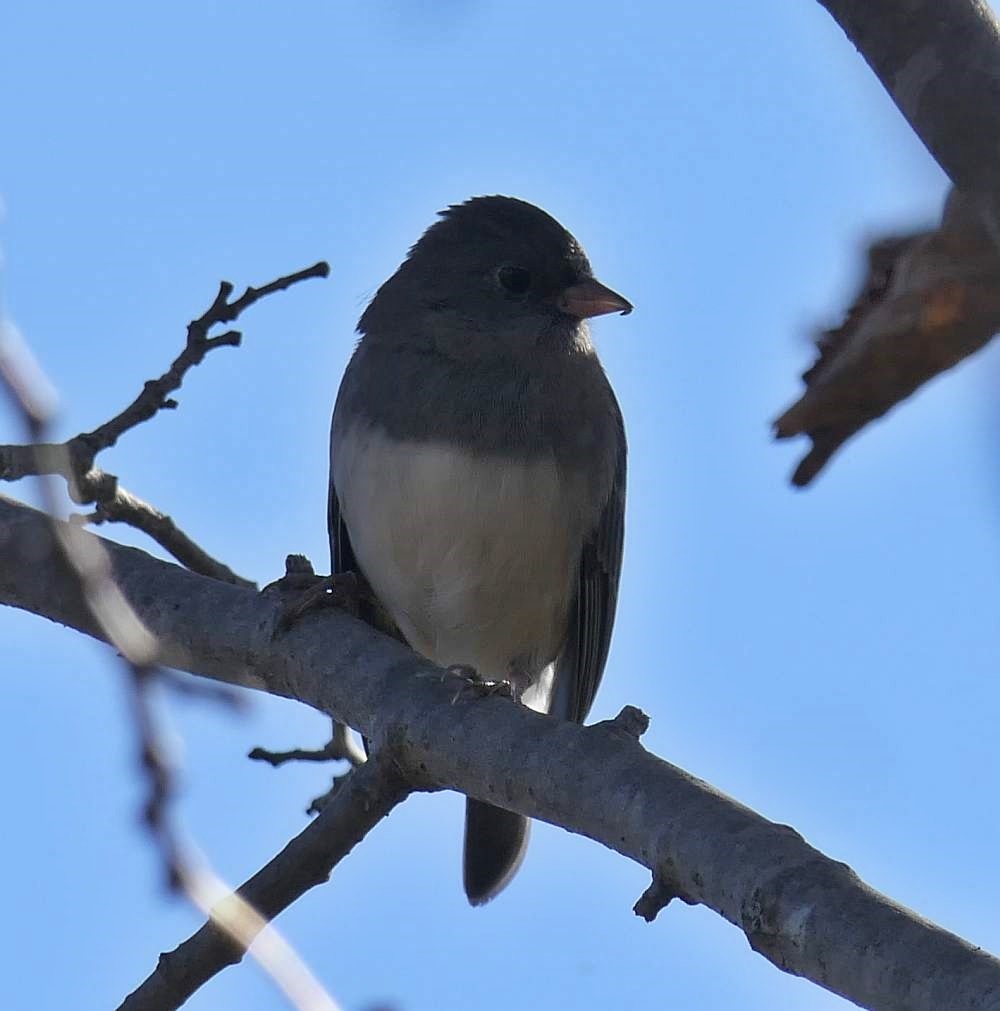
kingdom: Animalia
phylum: Chordata
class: Aves
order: Passeriformes
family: Passerellidae
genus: Junco
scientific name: Junco hyemalis
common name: Dark-eyed junco
